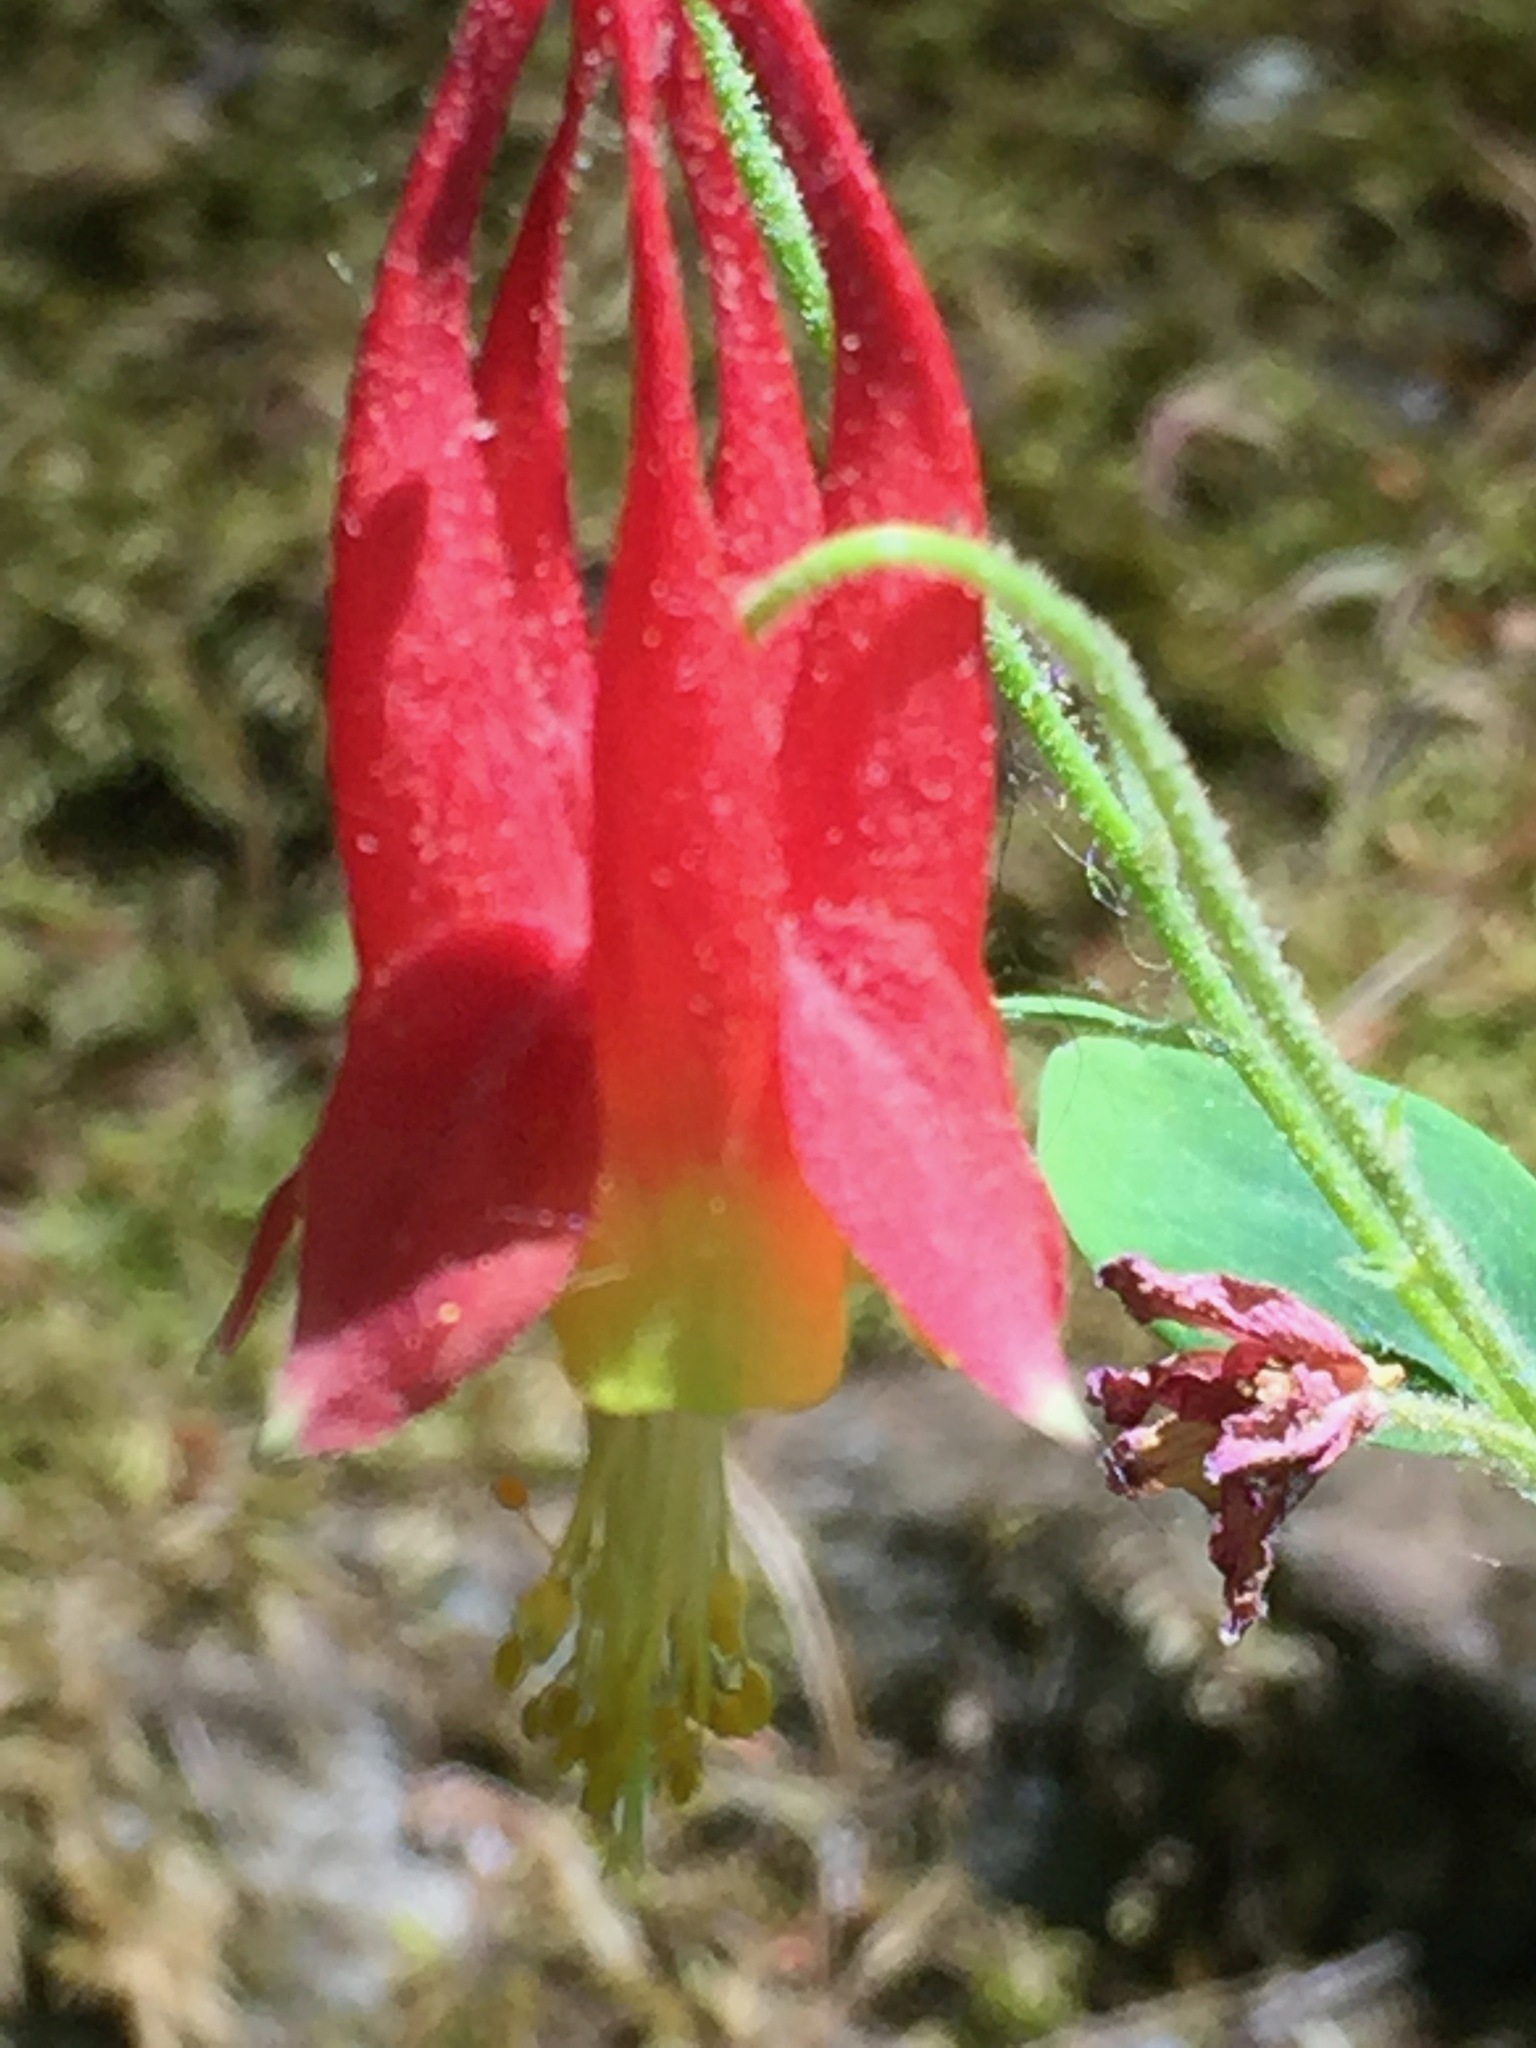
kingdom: Plantae
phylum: Tracheophyta
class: Magnoliopsida
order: Ranunculales
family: Ranunculaceae
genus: Aquilegia
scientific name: Aquilegia canadensis
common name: American columbine
